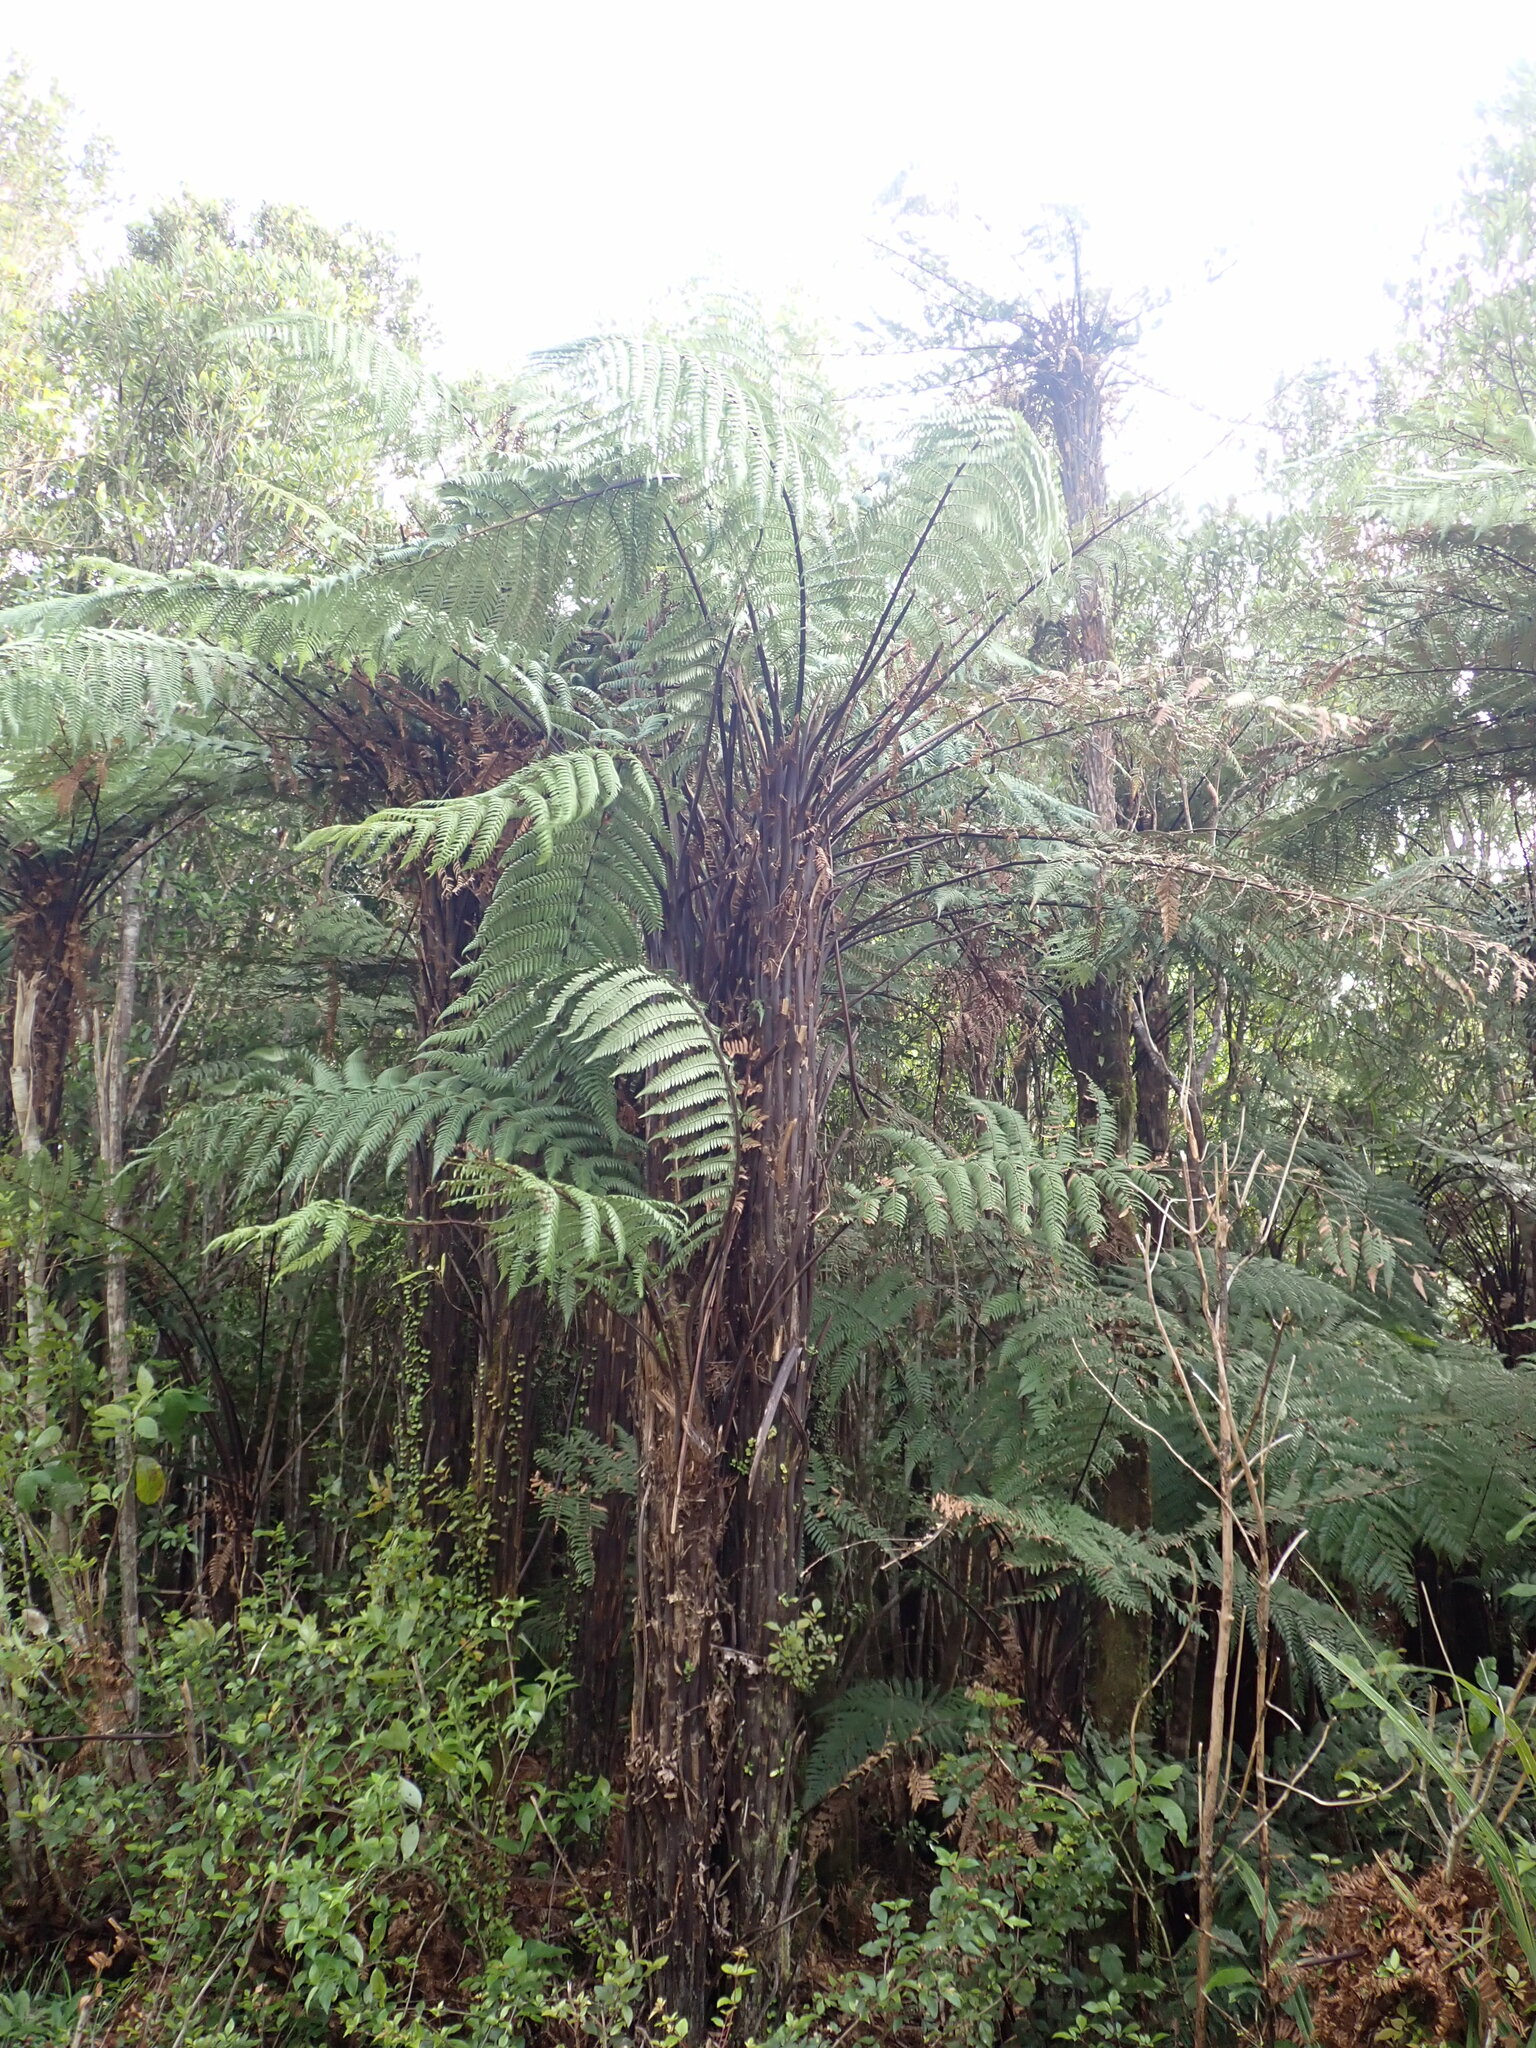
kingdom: Plantae
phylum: Tracheophyta
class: Polypodiopsida
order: Cyatheales
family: Dicksoniaceae
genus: Dicksonia
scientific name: Dicksonia squarrosa
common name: Hard treefern
